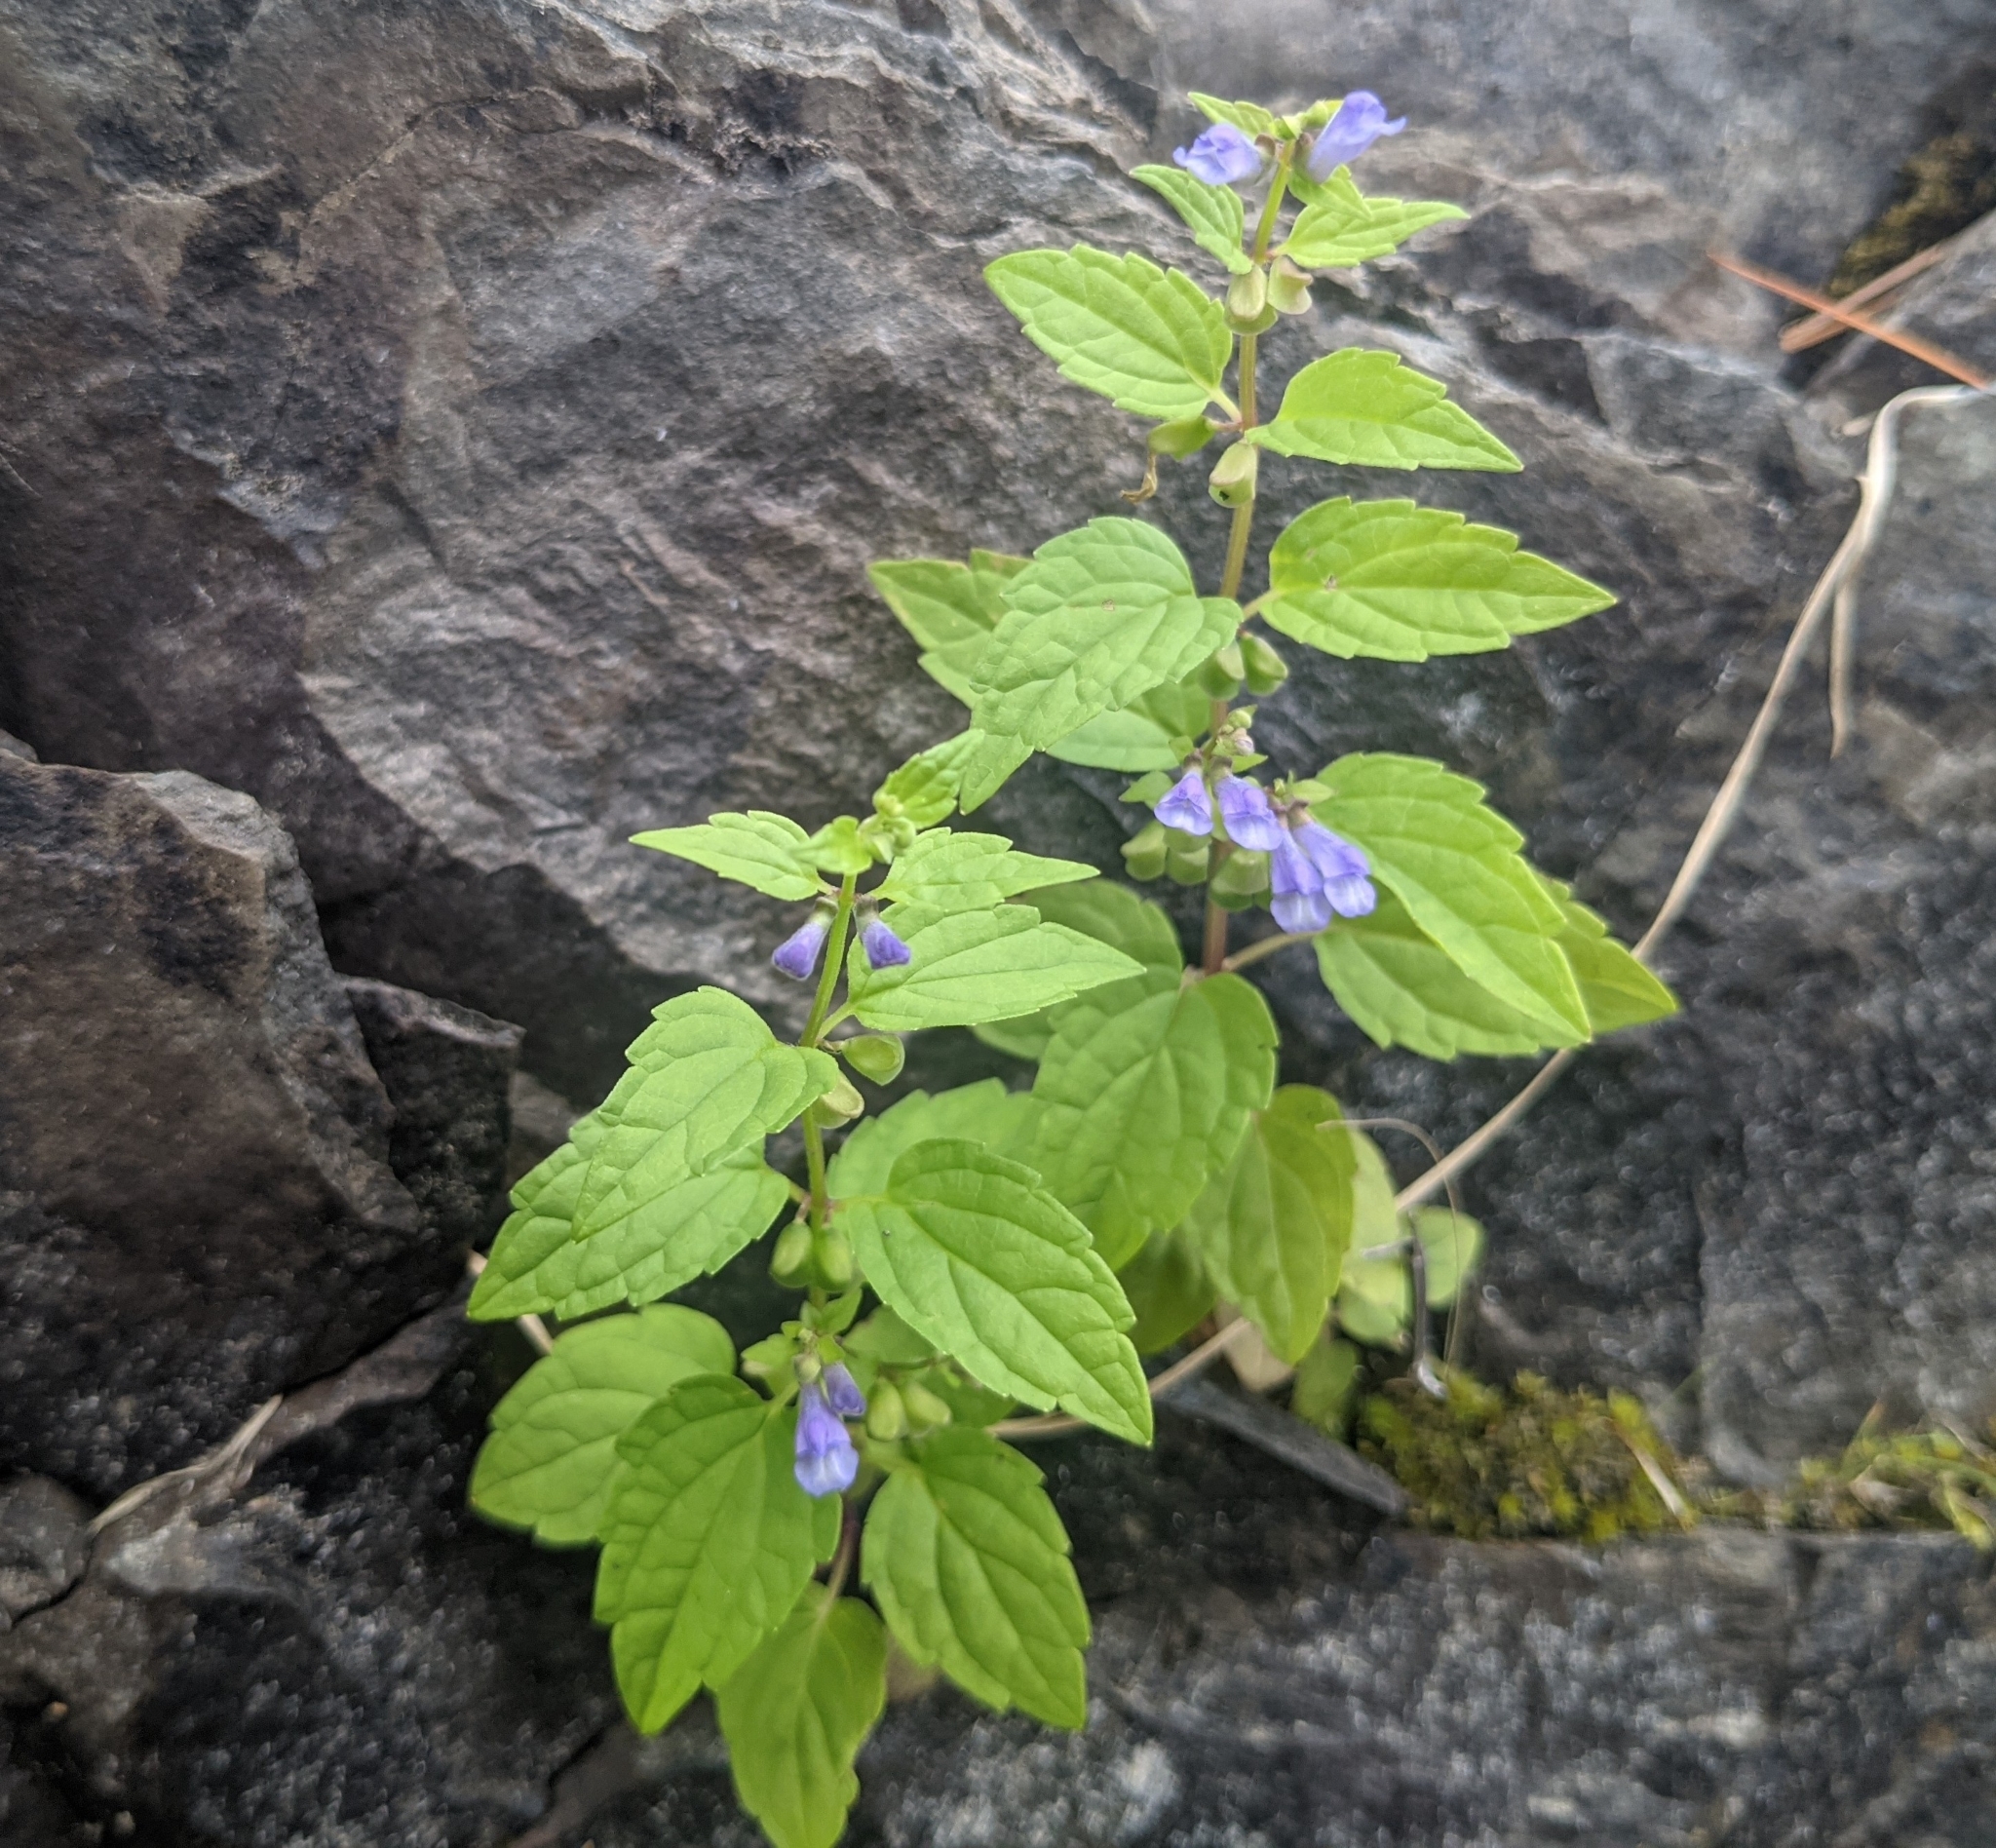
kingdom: Plantae
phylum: Tracheophyta
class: Magnoliopsida
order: Lamiales
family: Lamiaceae
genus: Scutellaria
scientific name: Scutellaria lateriflora
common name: Blue skullcap
